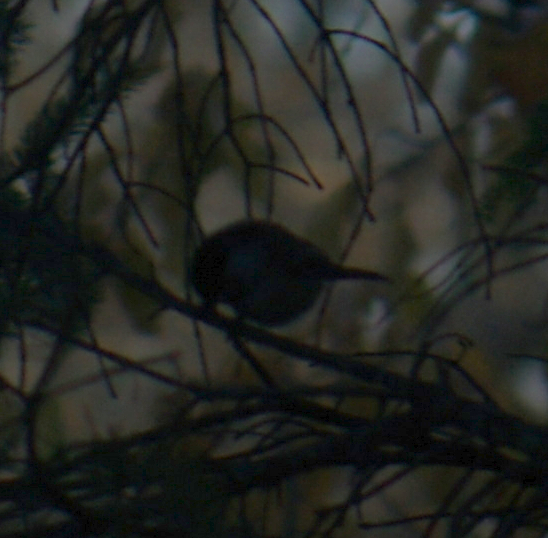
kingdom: Animalia
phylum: Chordata
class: Aves
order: Passeriformes
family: Paridae
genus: Poecile
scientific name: Poecile atricapillus
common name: Black-capped chickadee
